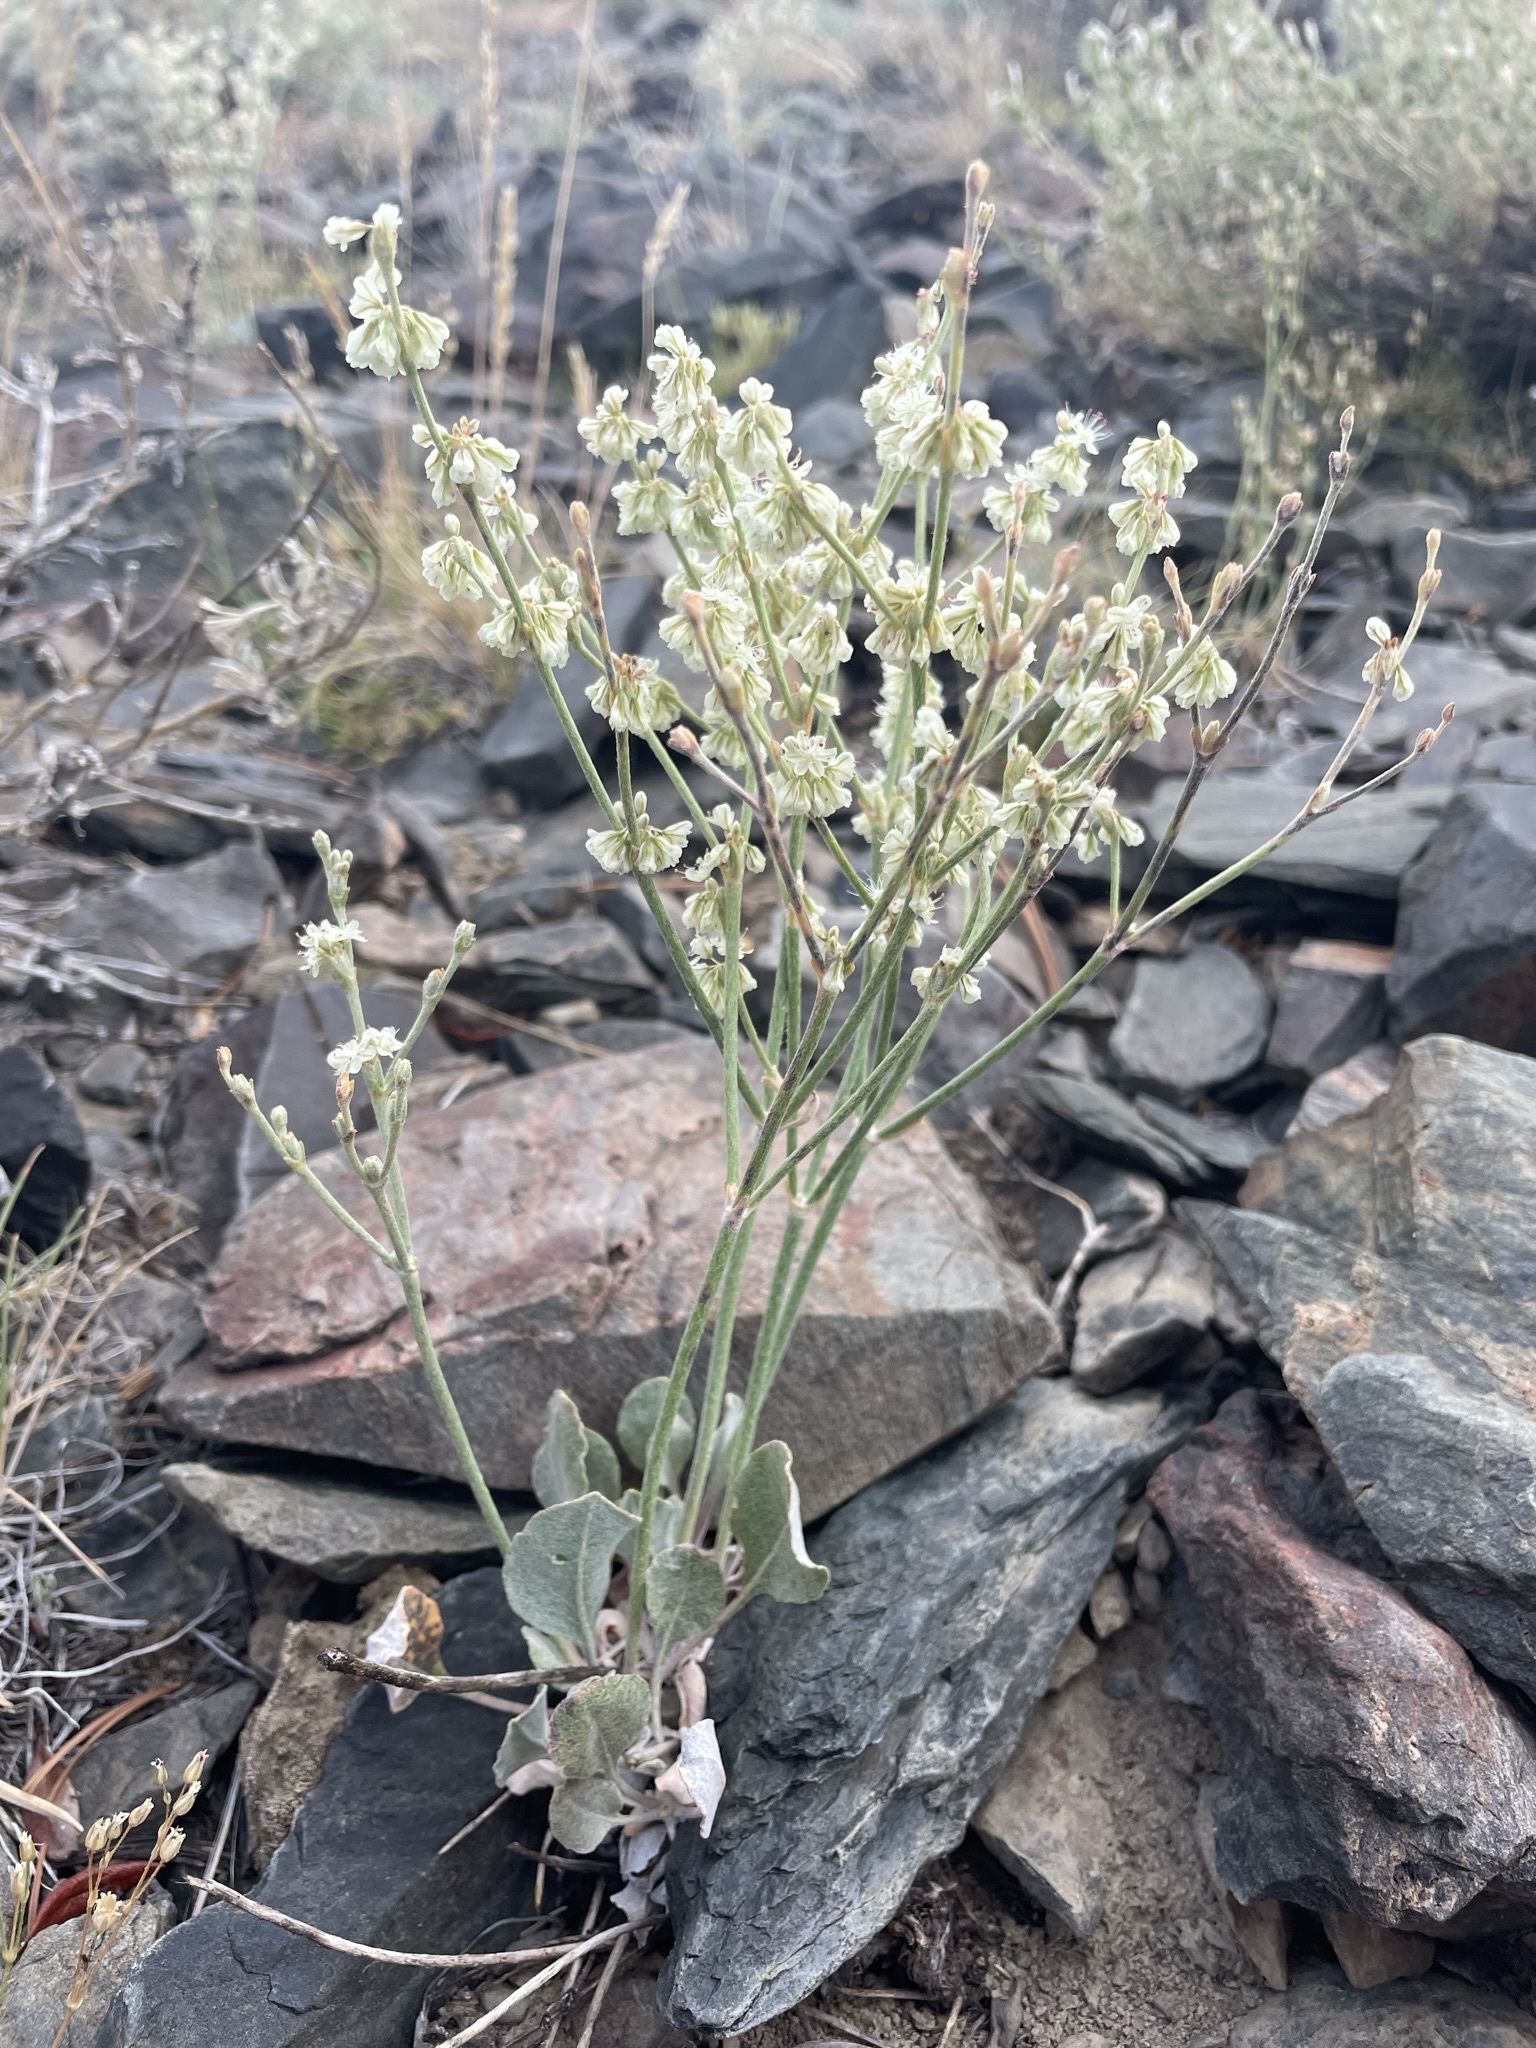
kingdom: Plantae
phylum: Tracheophyta
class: Magnoliopsida
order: Caryophyllales
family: Polygonaceae
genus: Eriogonum
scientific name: Eriogonum rupinum
